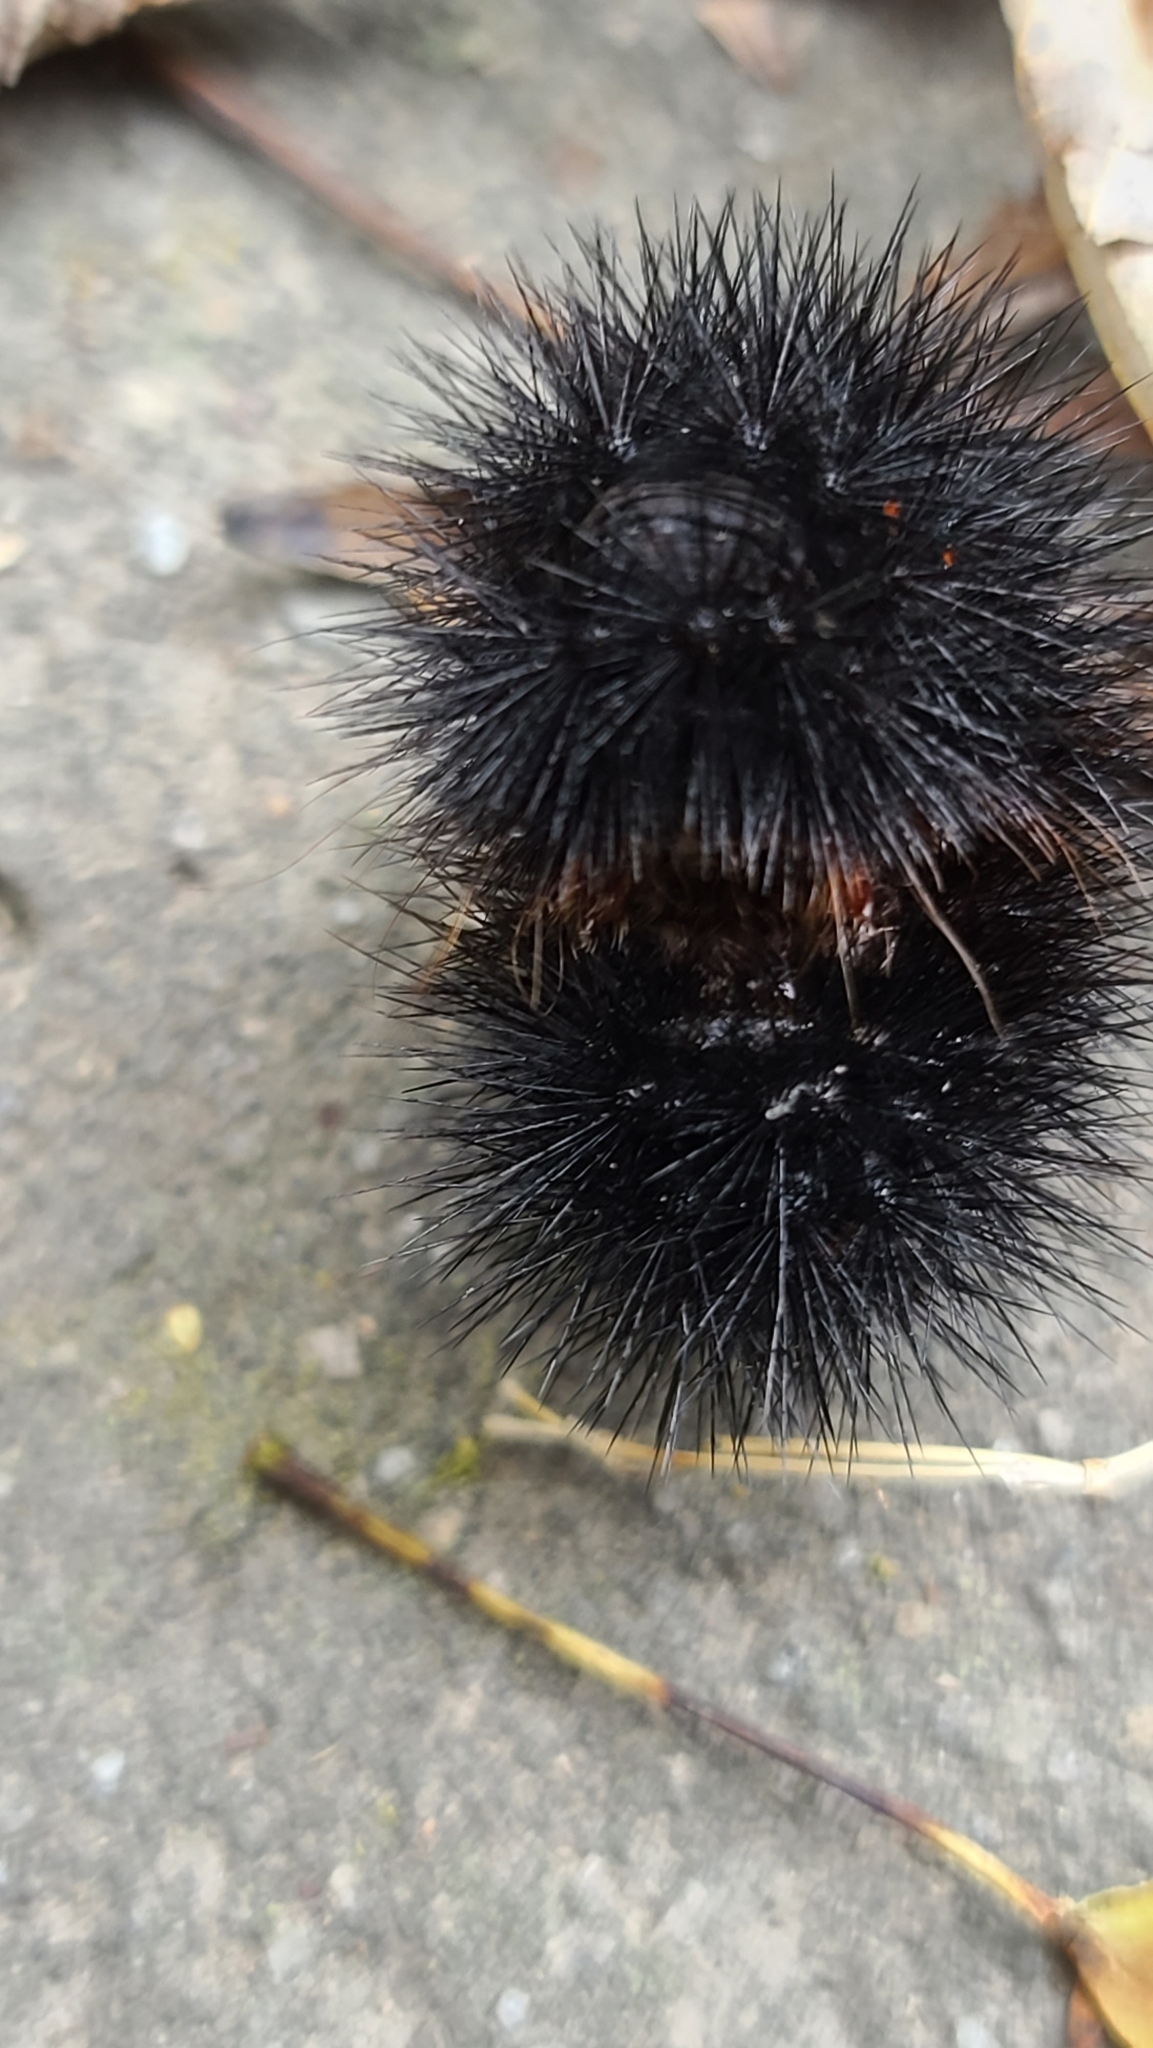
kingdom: Animalia
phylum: Arthropoda
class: Insecta
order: Lepidoptera
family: Erebidae
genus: Hypercompe
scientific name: Hypercompe scribonia
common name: Giant leopard moth
